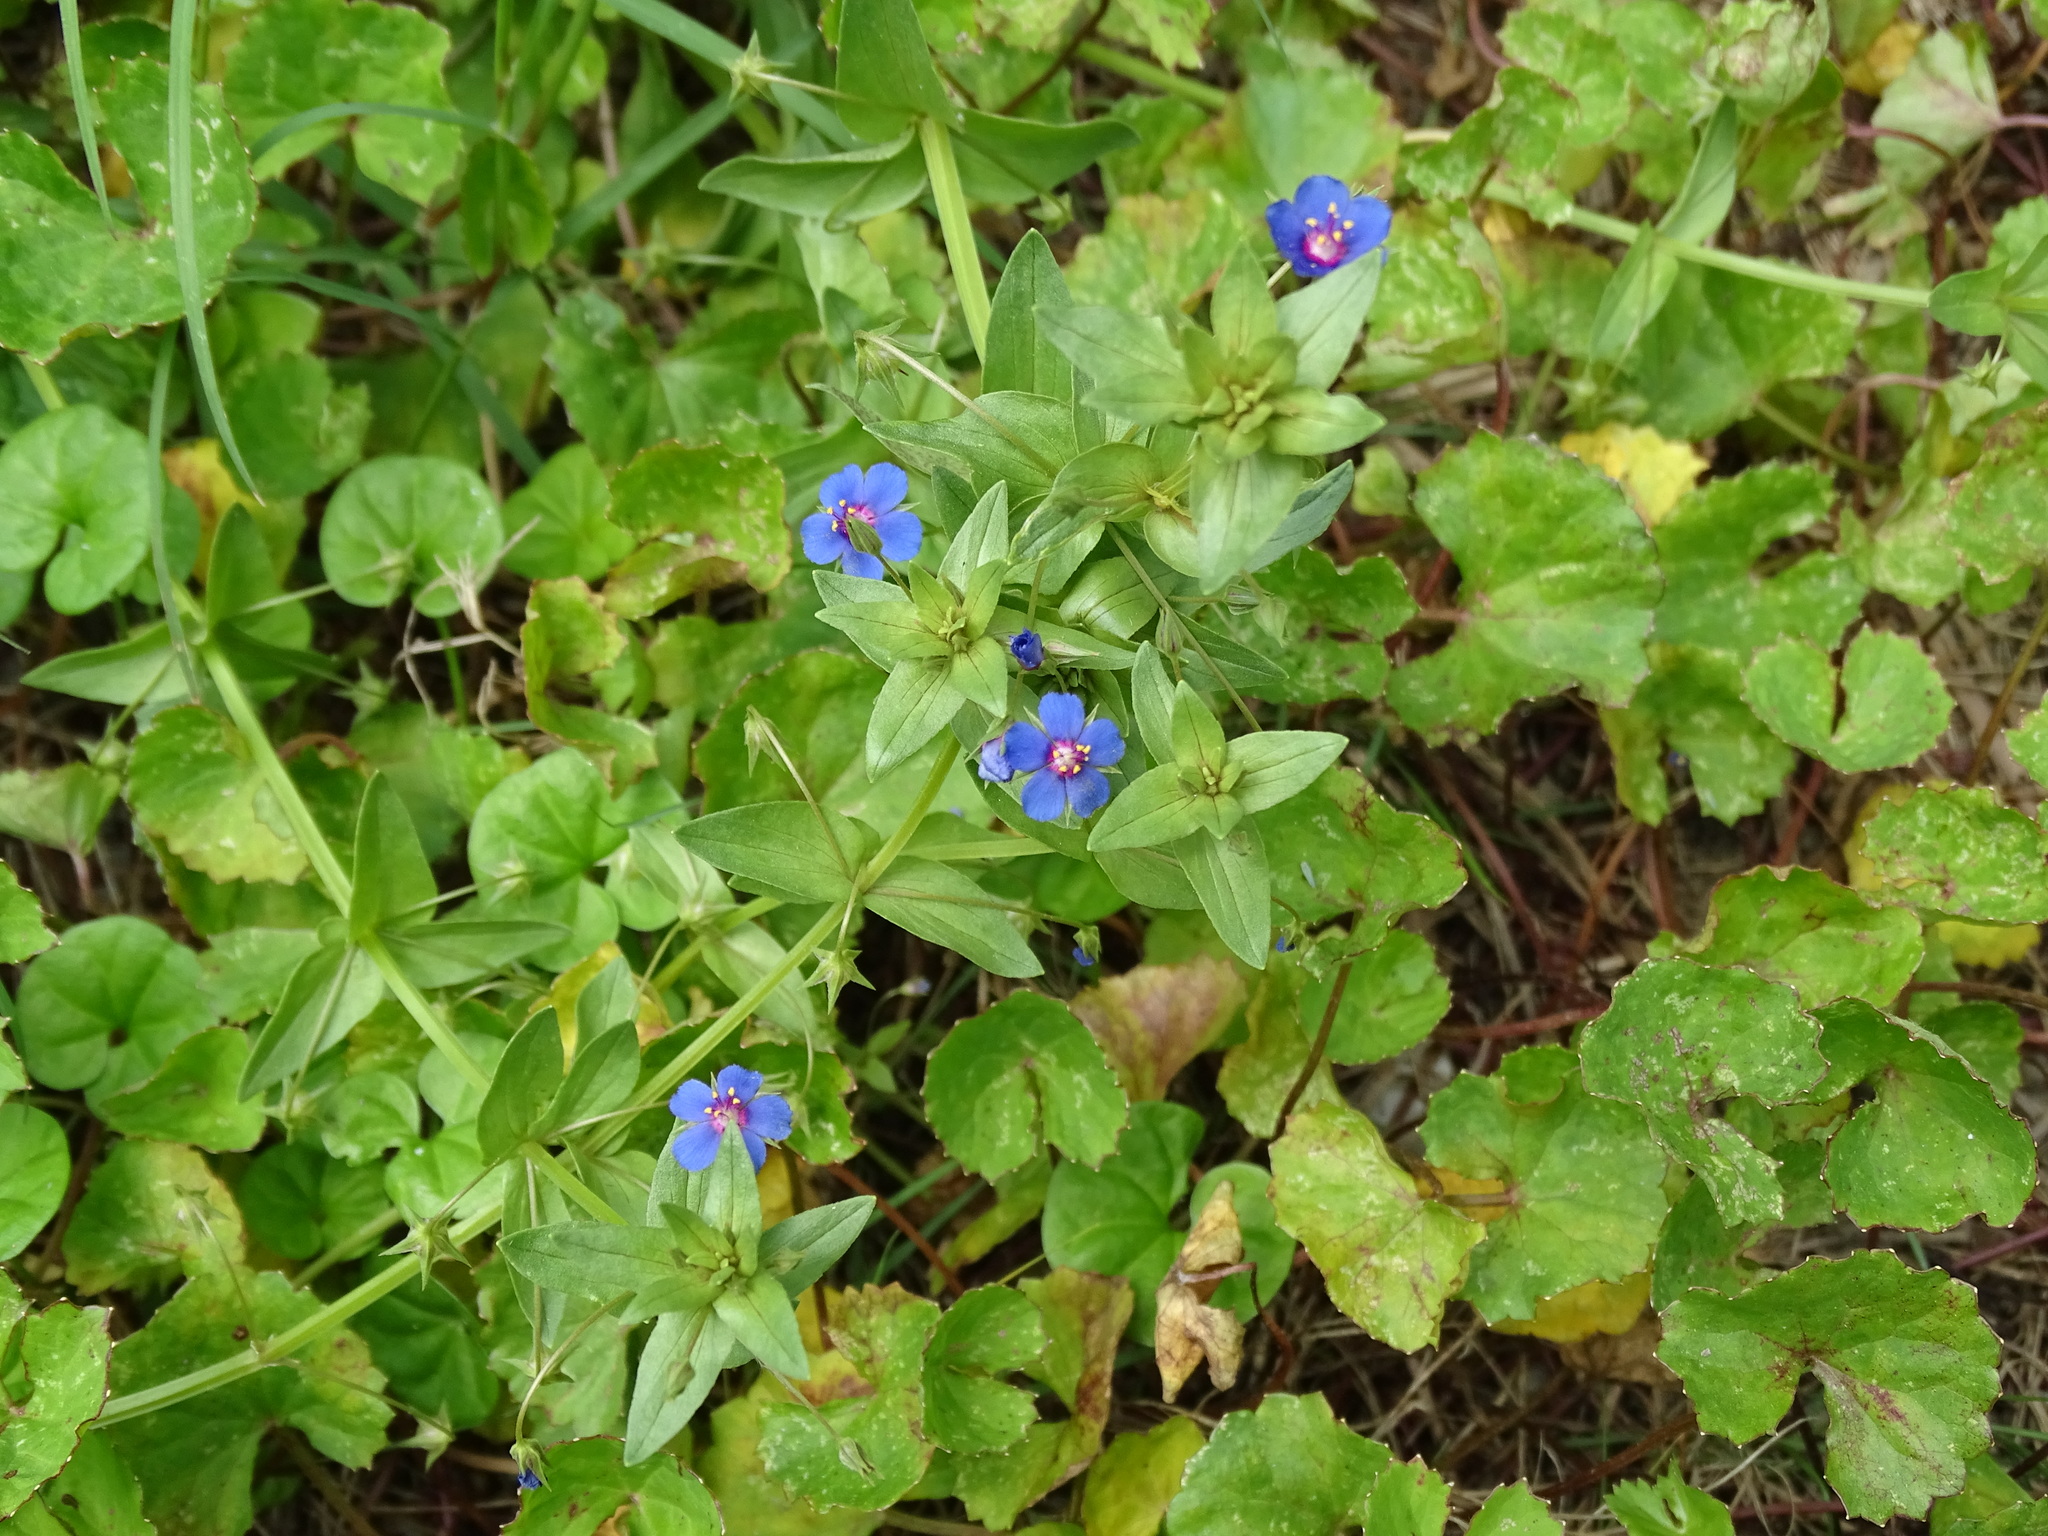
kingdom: Plantae
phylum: Tracheophyta
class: Magnoliopsida
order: Ericales
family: Primulaceae
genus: Lysimachia
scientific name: Lysimachia loeflingii
